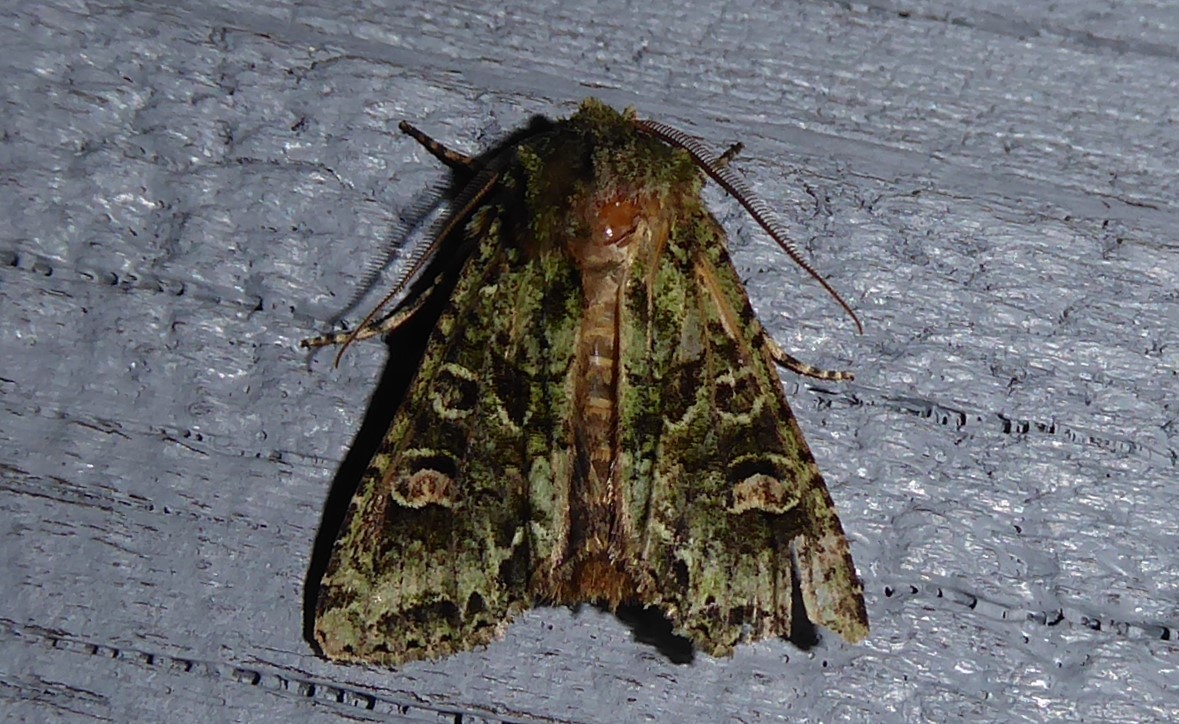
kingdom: Animalia
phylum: Arthropoda
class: Insecta
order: Lepidoptera
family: Noctuidae
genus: Ichneutica
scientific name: Ichneutica
